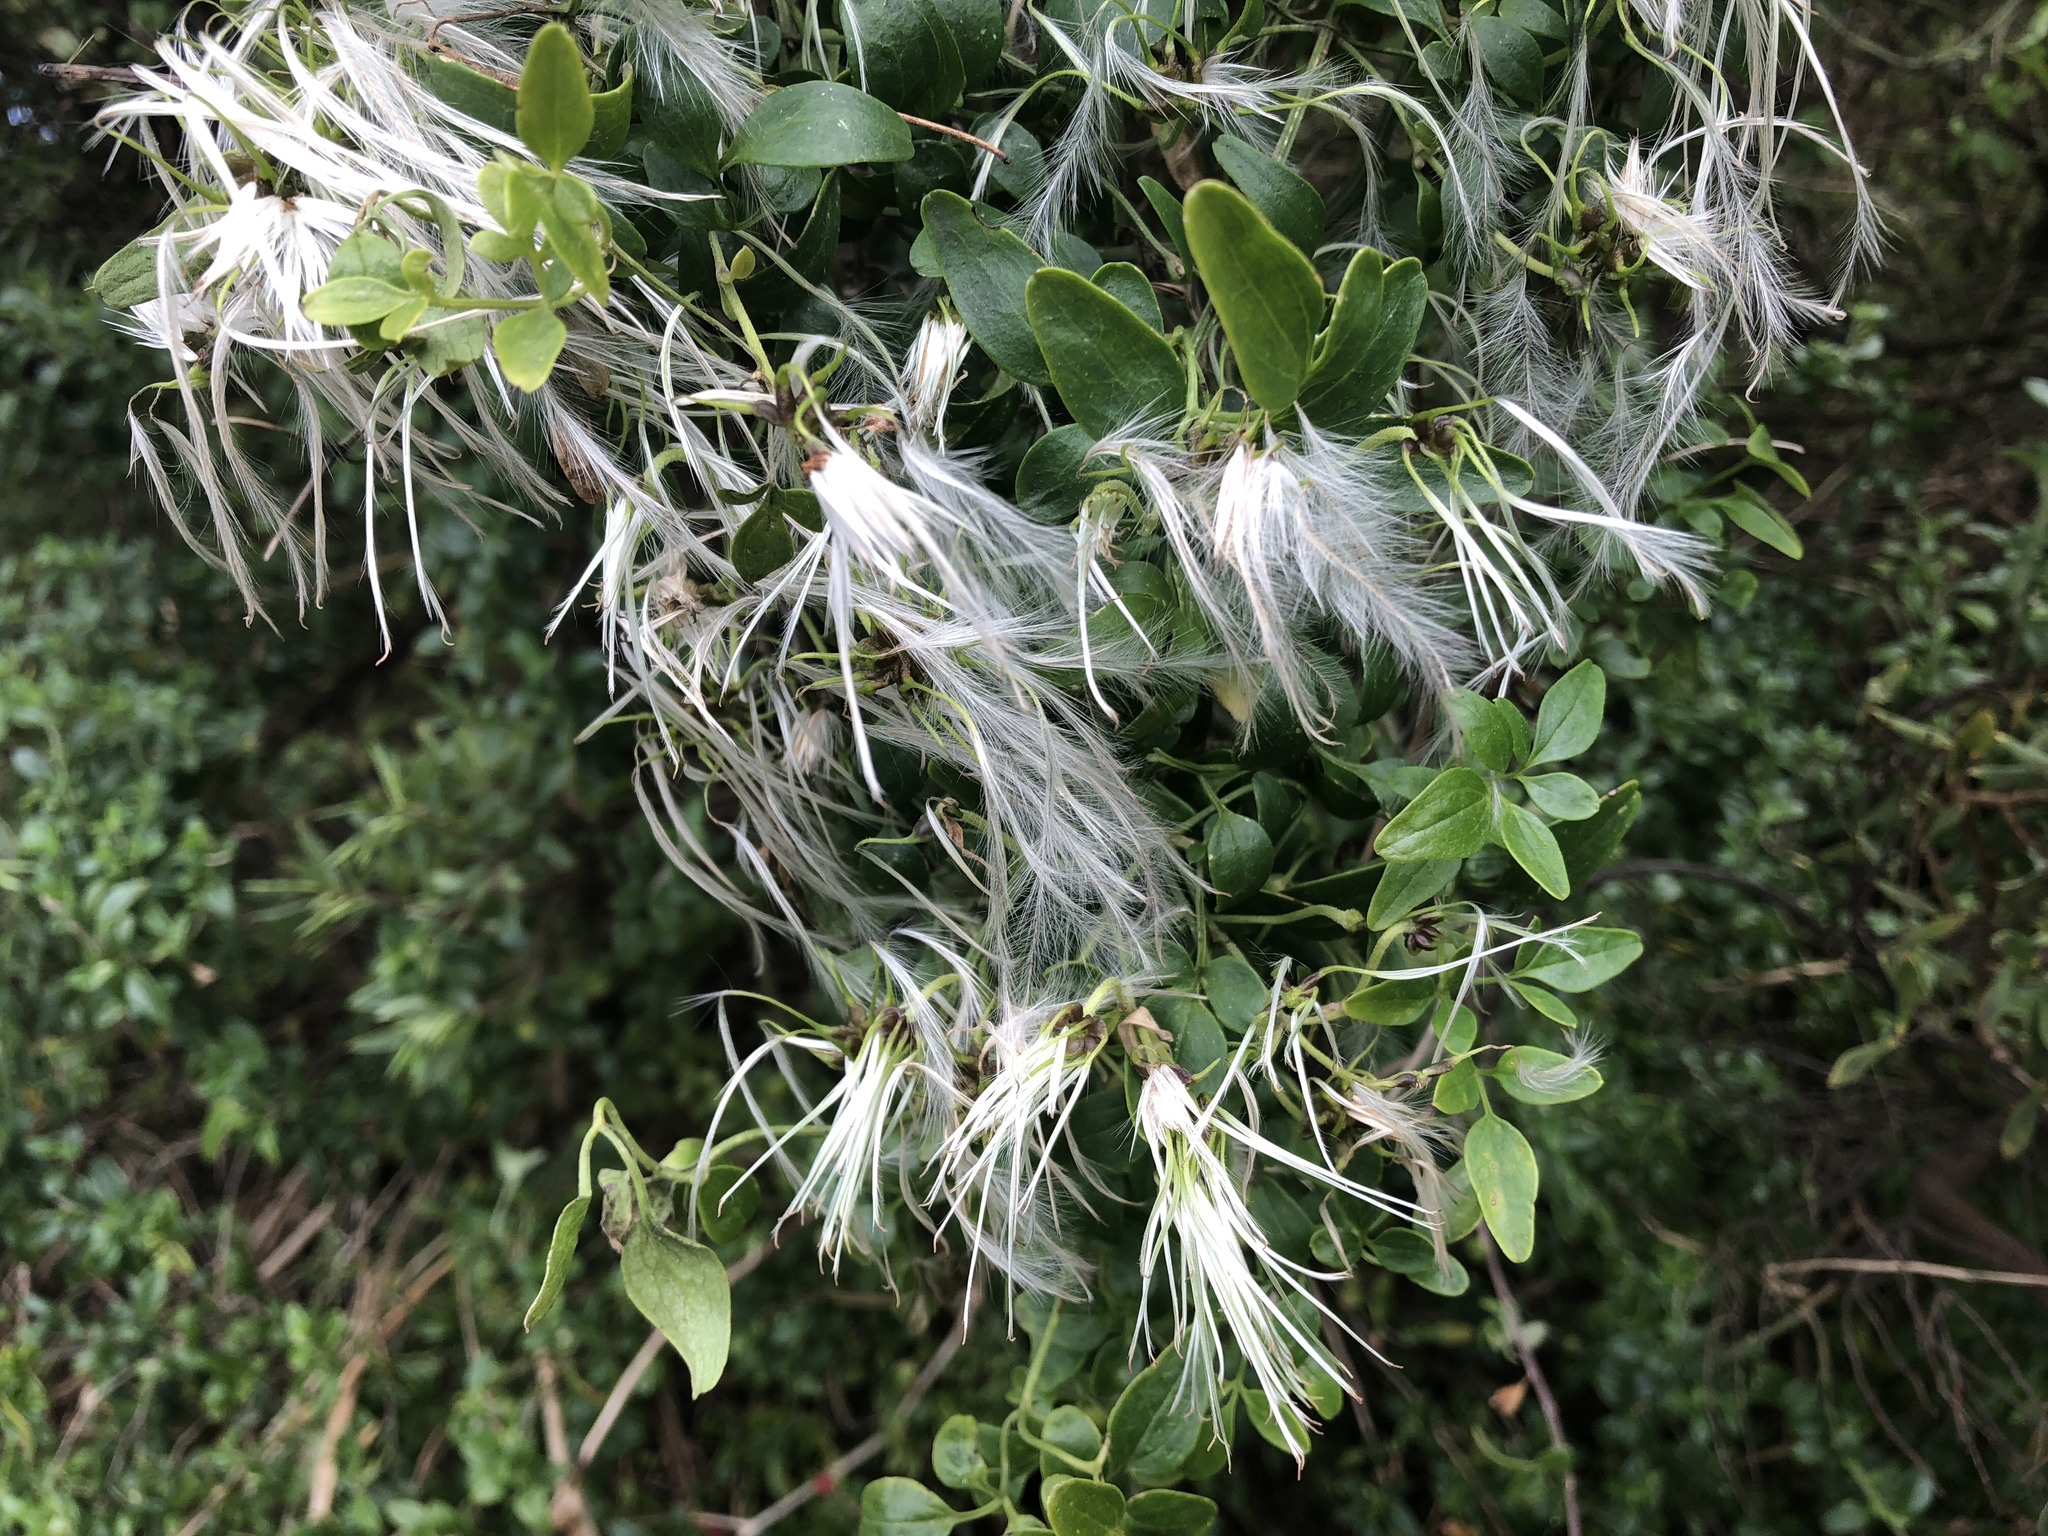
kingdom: Plantae
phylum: Tracheophyta
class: Magnoliopsida
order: Ranunculales
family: Ranunculaceae
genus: Clematis
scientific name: Clematis microphylla
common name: Headachevine
